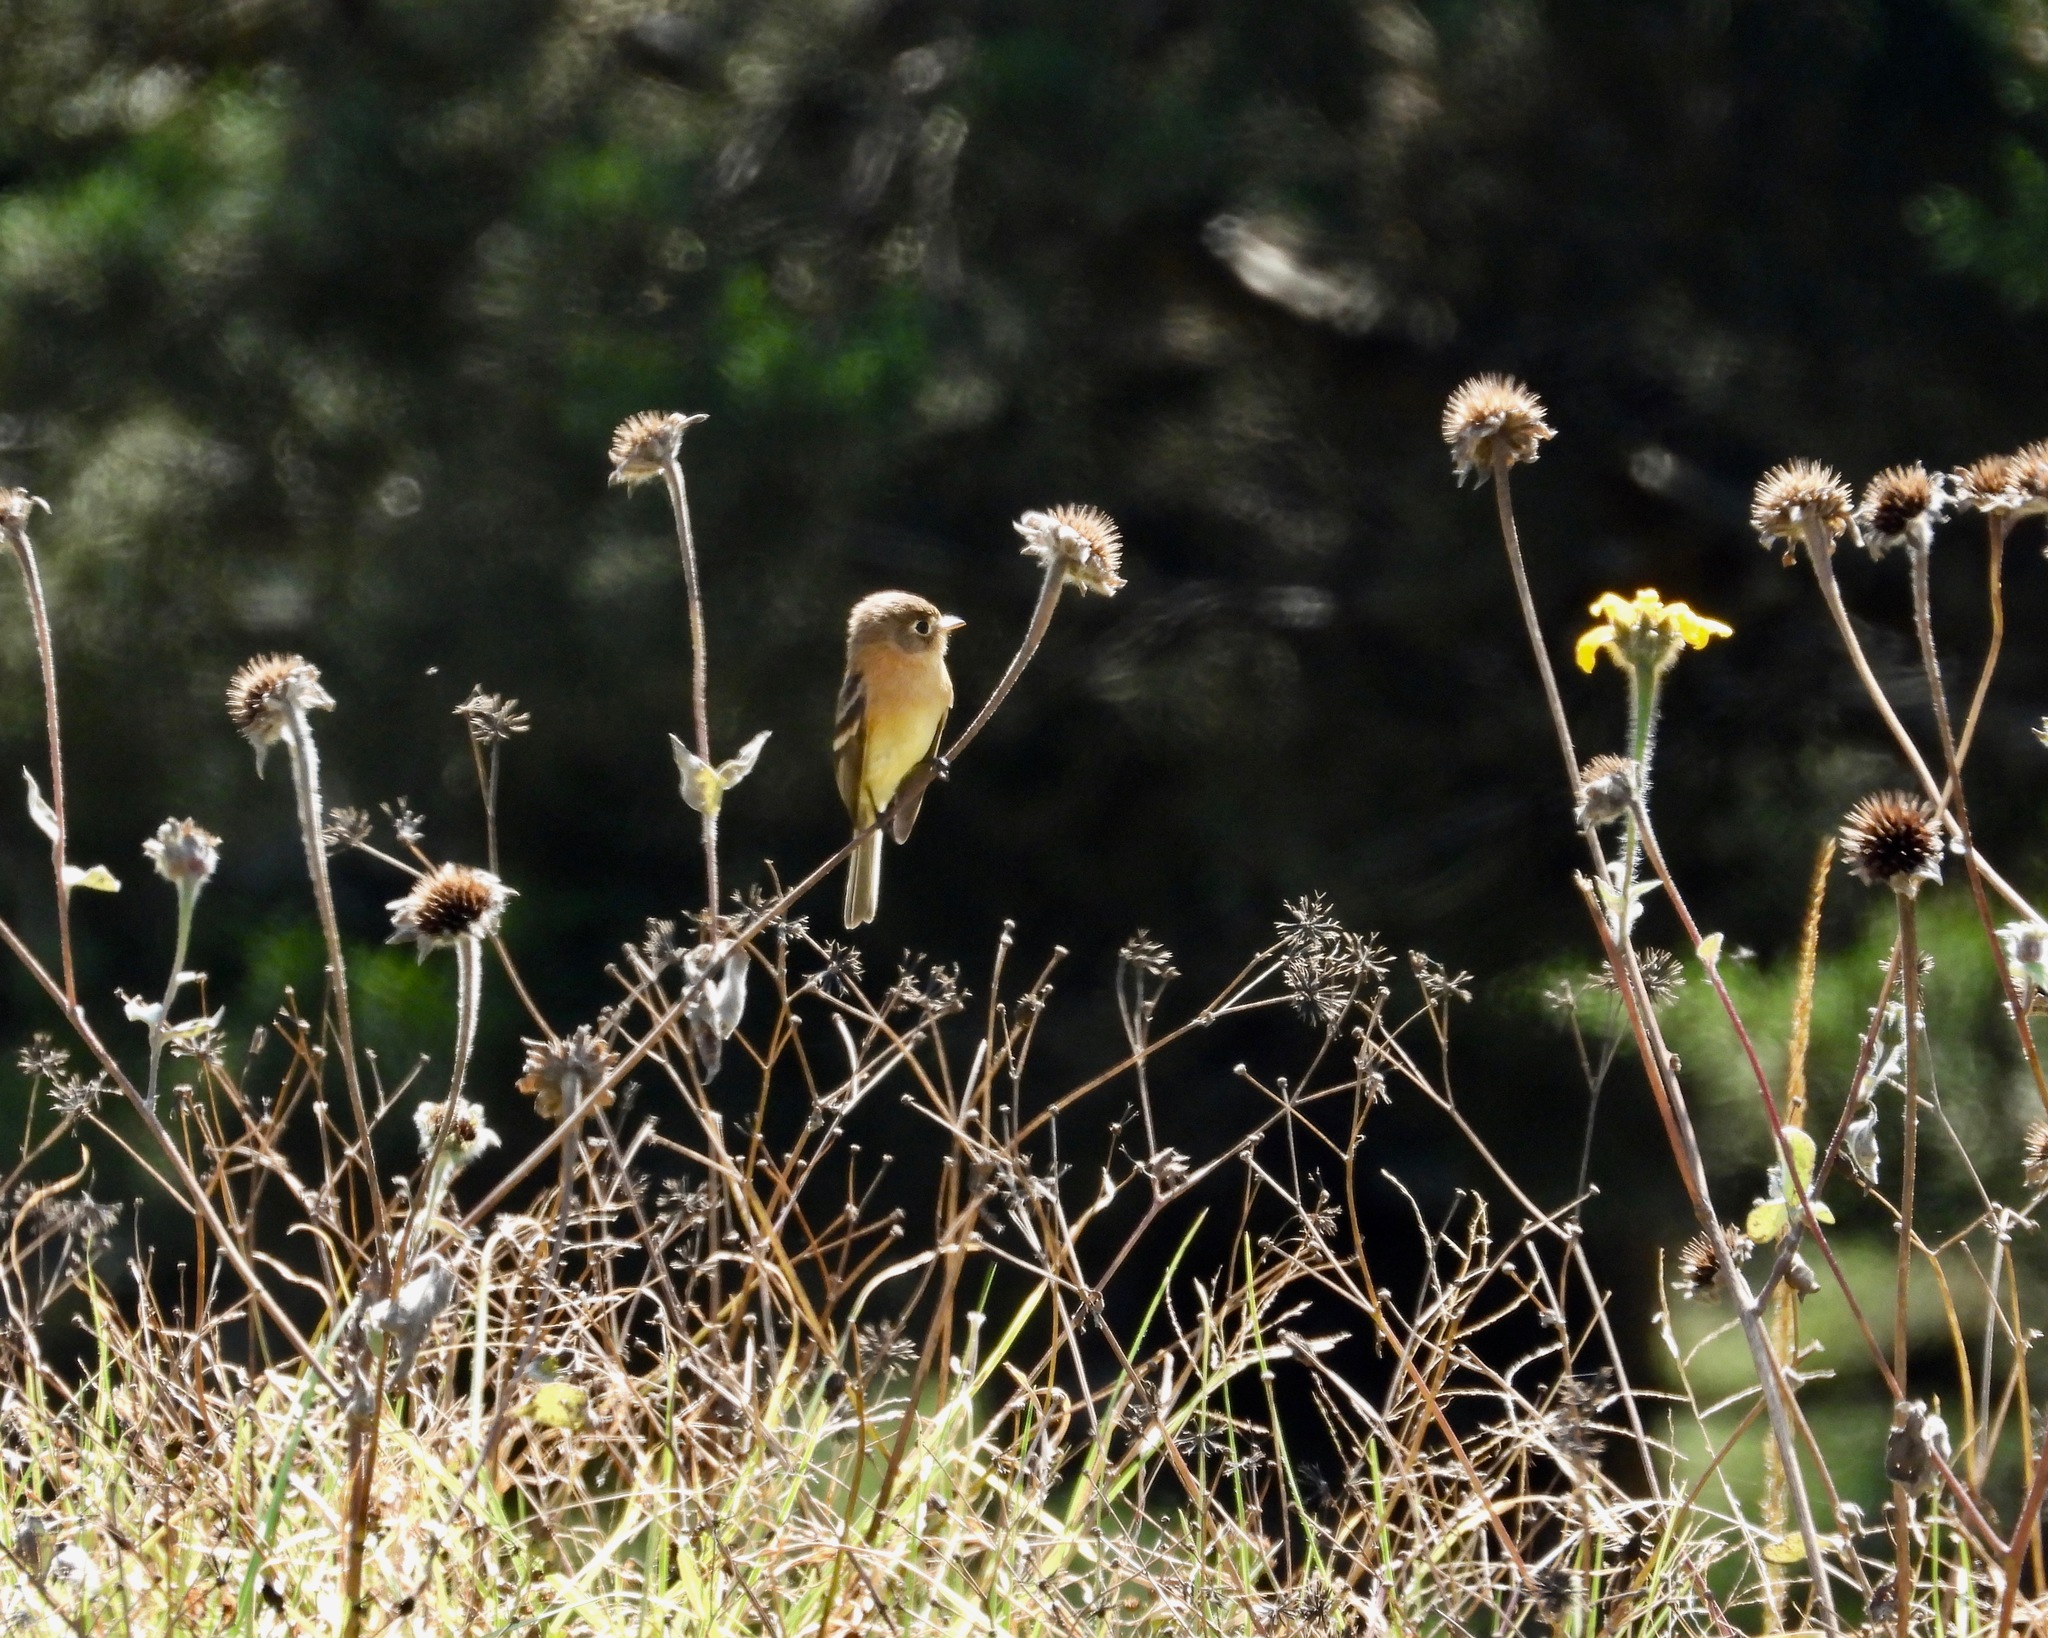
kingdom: Animalia
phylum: Chordata
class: Aves
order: Passeriformes
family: Tyrannidae
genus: Empidonax
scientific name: Empidonax fulvifrons
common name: Buff-breasted flycatcher
